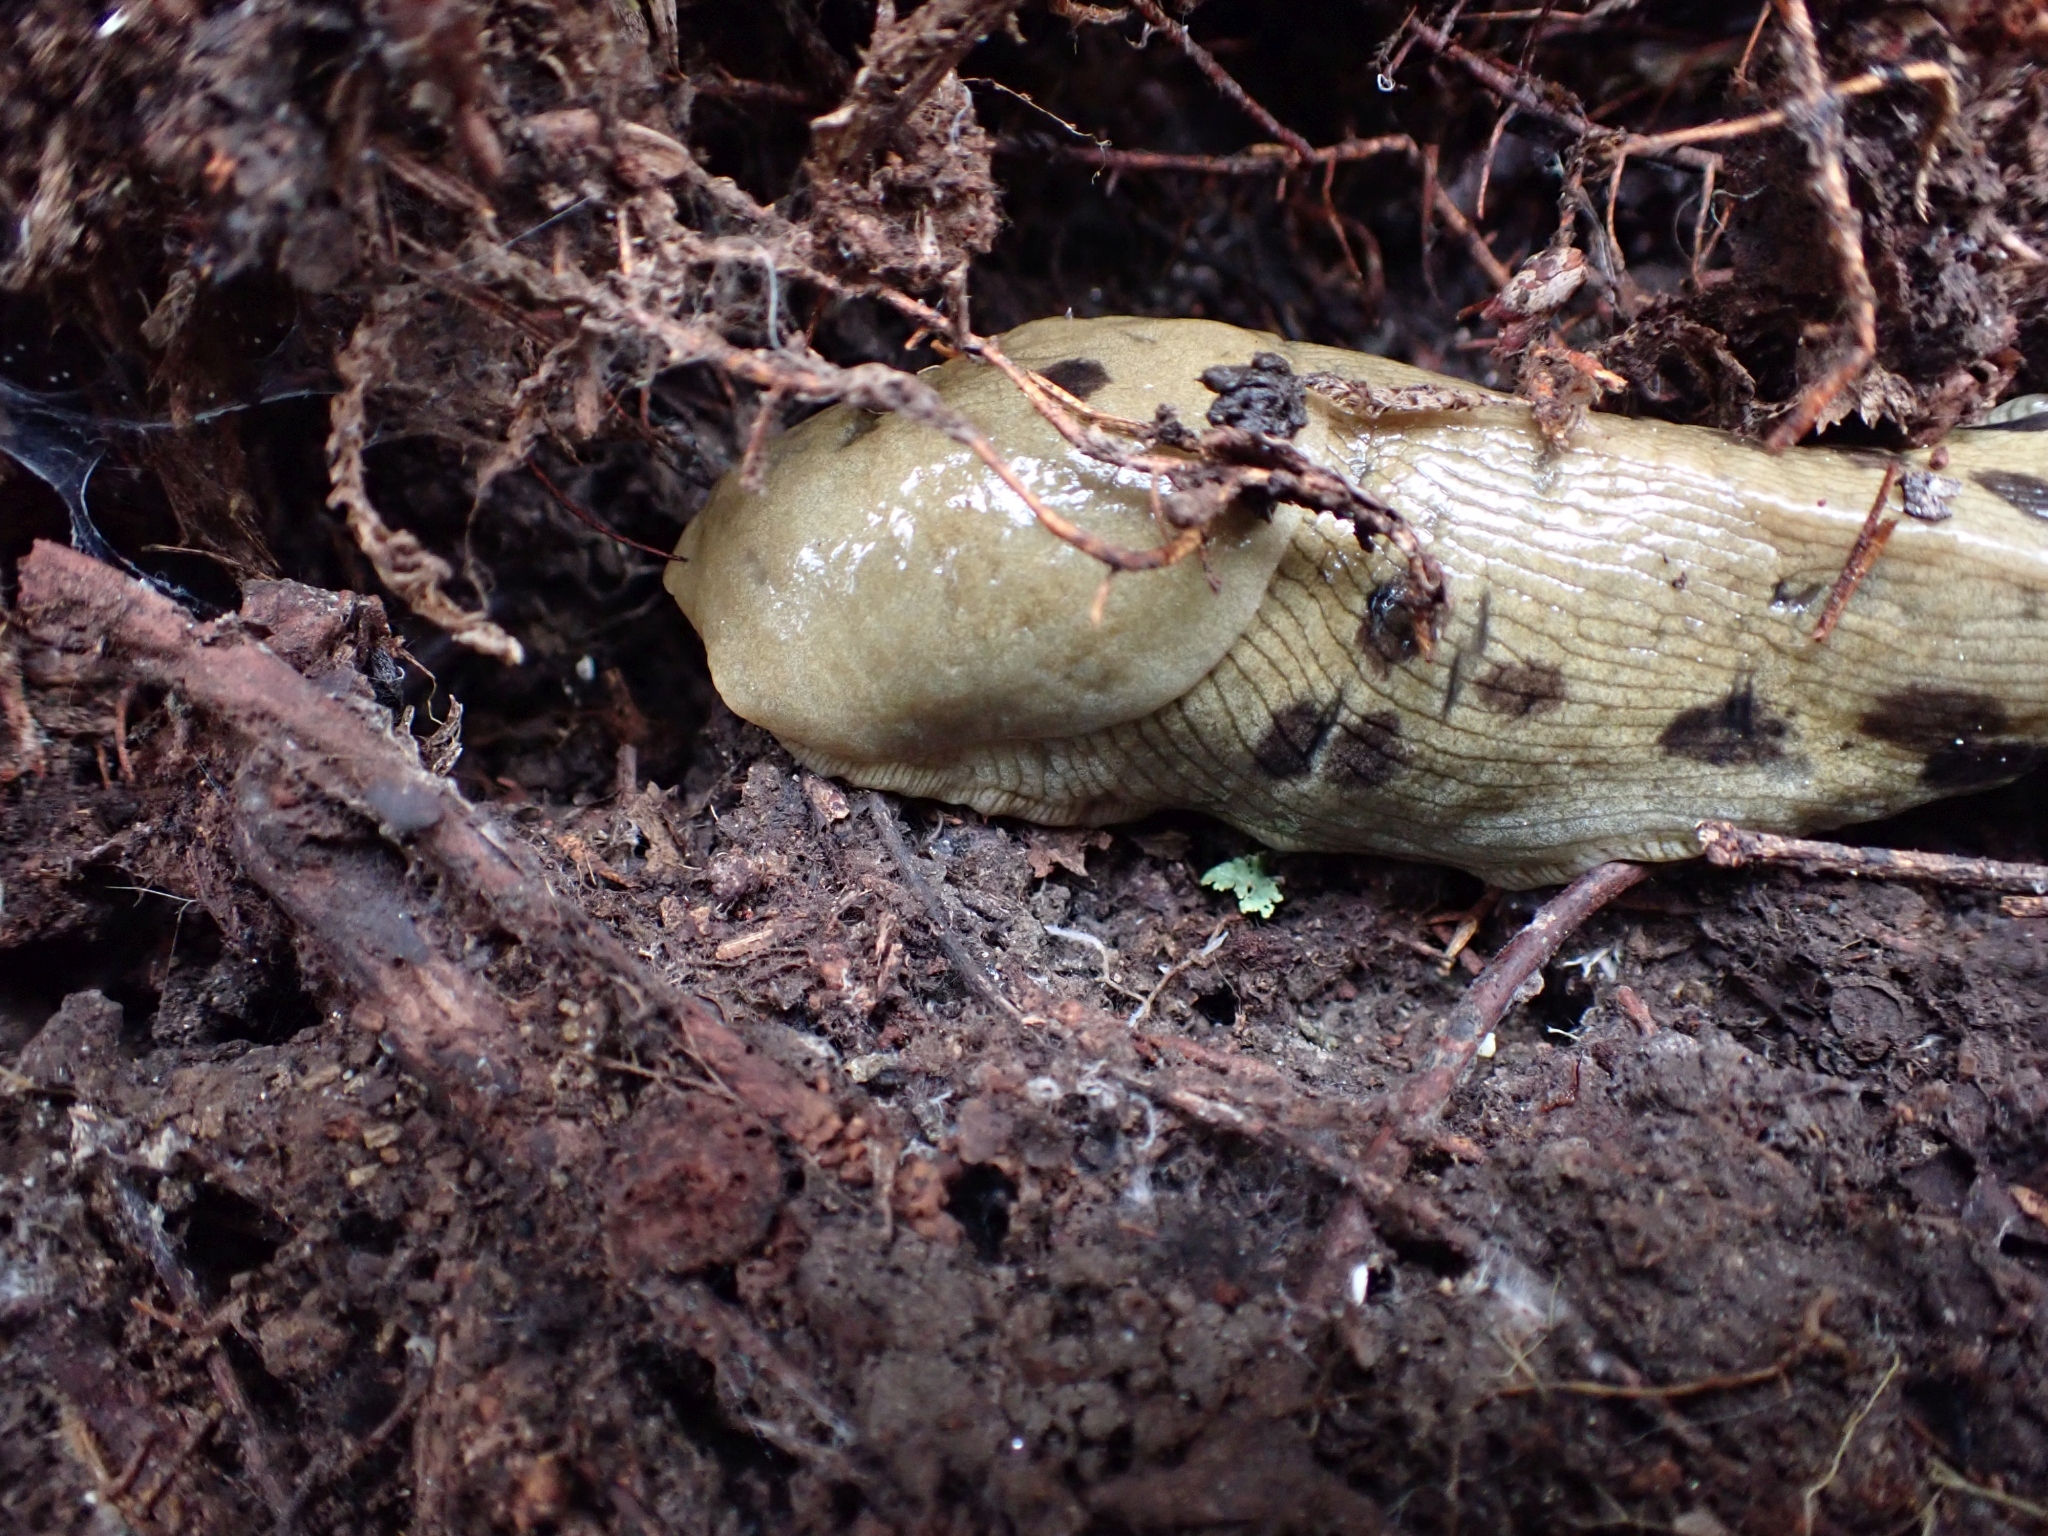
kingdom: Animalia
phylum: Mollusca
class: Gastropoda
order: Stylommatophora
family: Ariolimacidae
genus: Ariolimax
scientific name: Ariolimax columbianus
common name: Pacific banana slug
